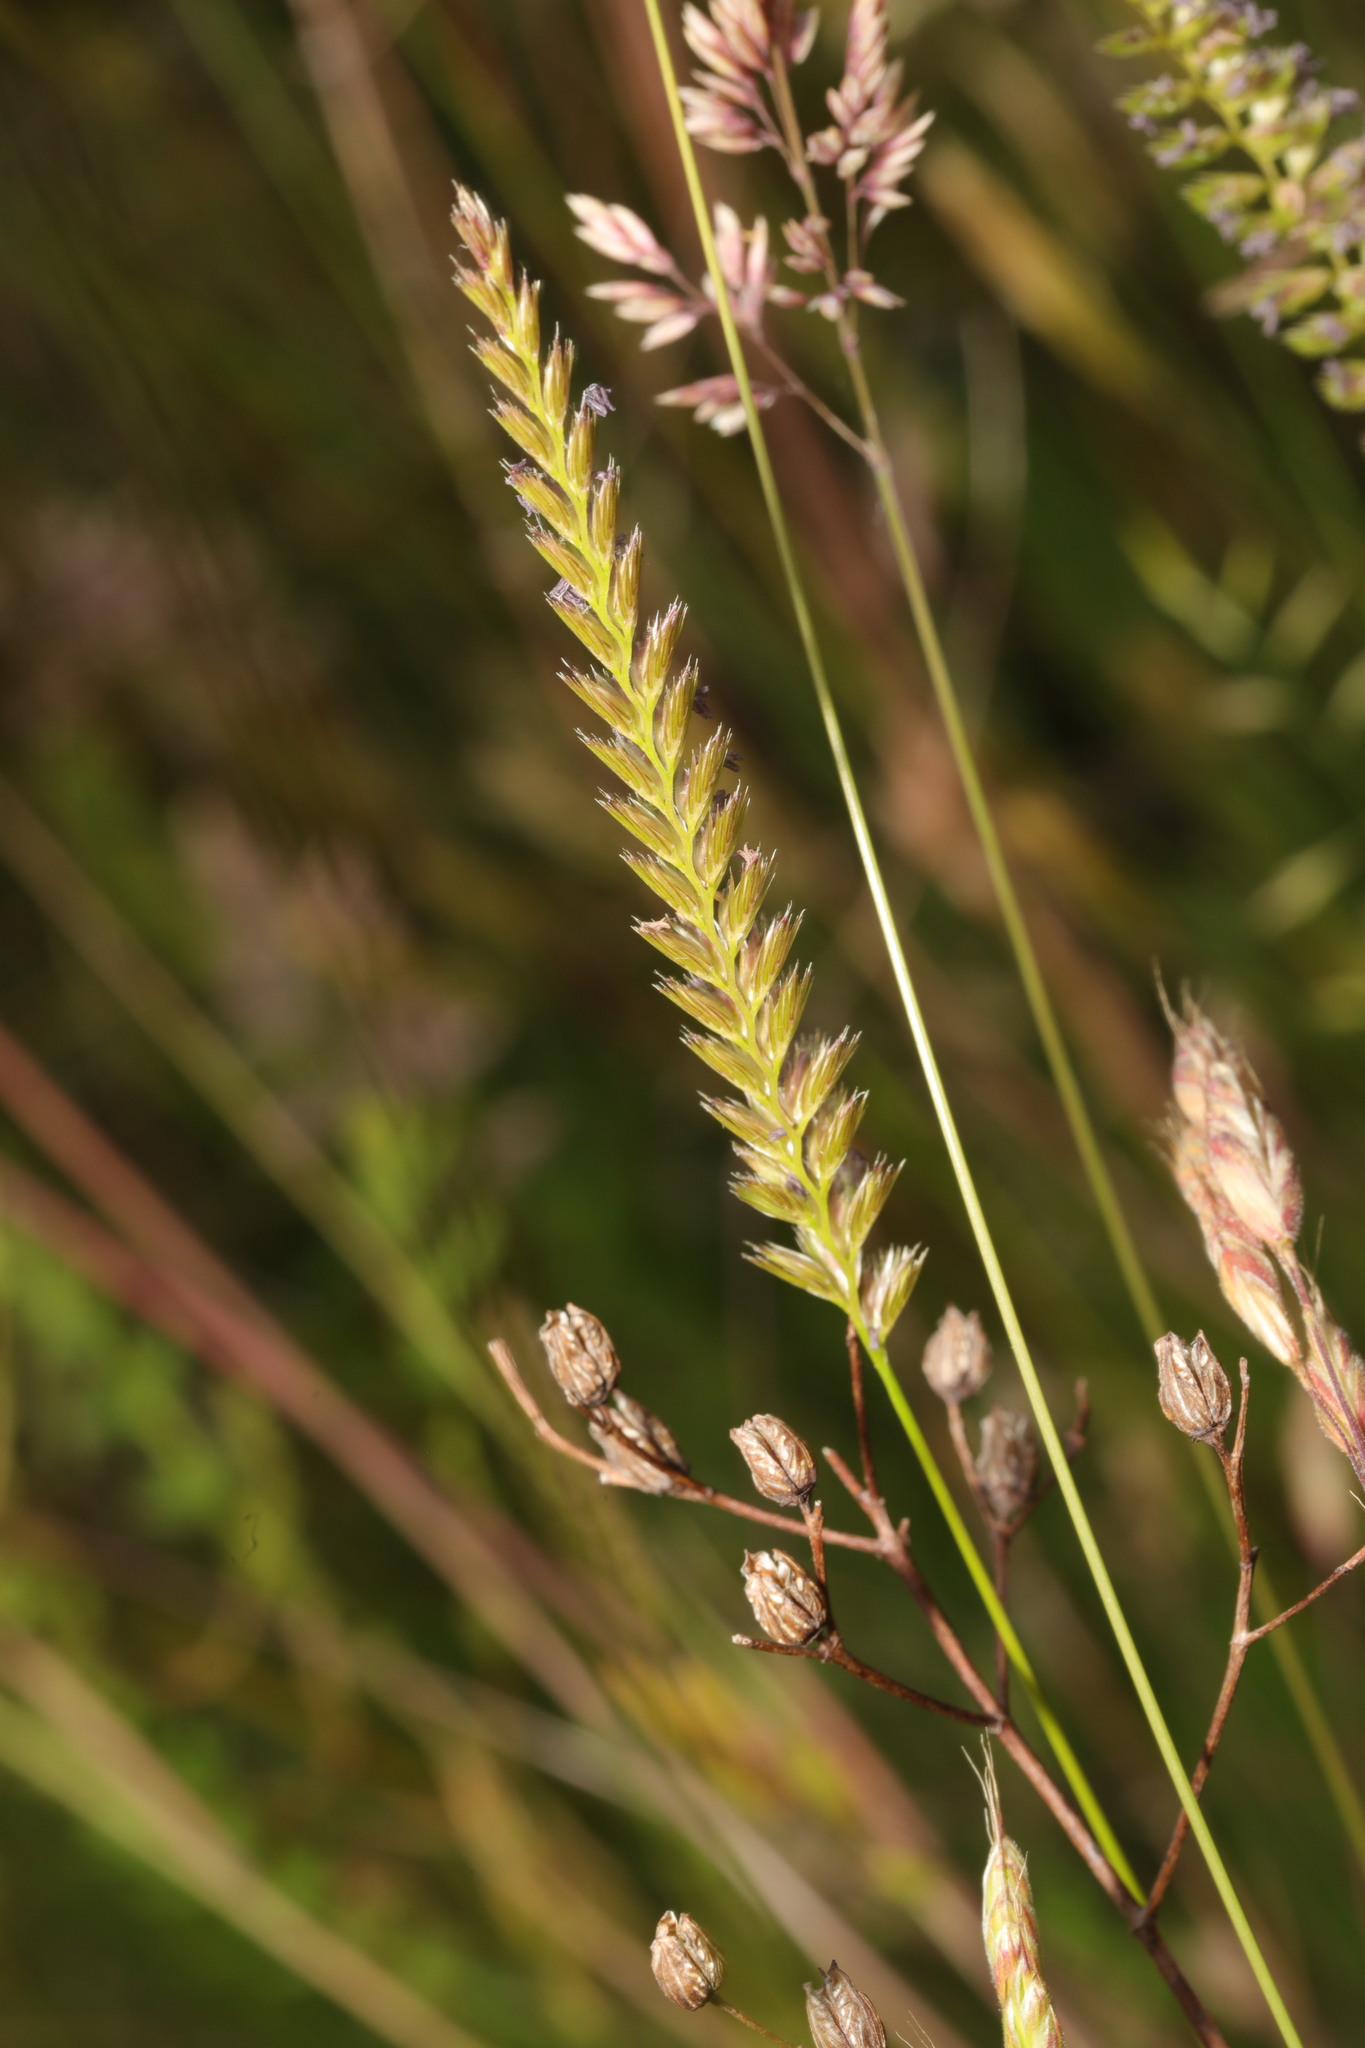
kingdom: Plantae
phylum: Tracheophyta
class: Liliopsida
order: Poales
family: Poaceae
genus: Cynosurus
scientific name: Cynosurus cristatus
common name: Crested dog's-tail
